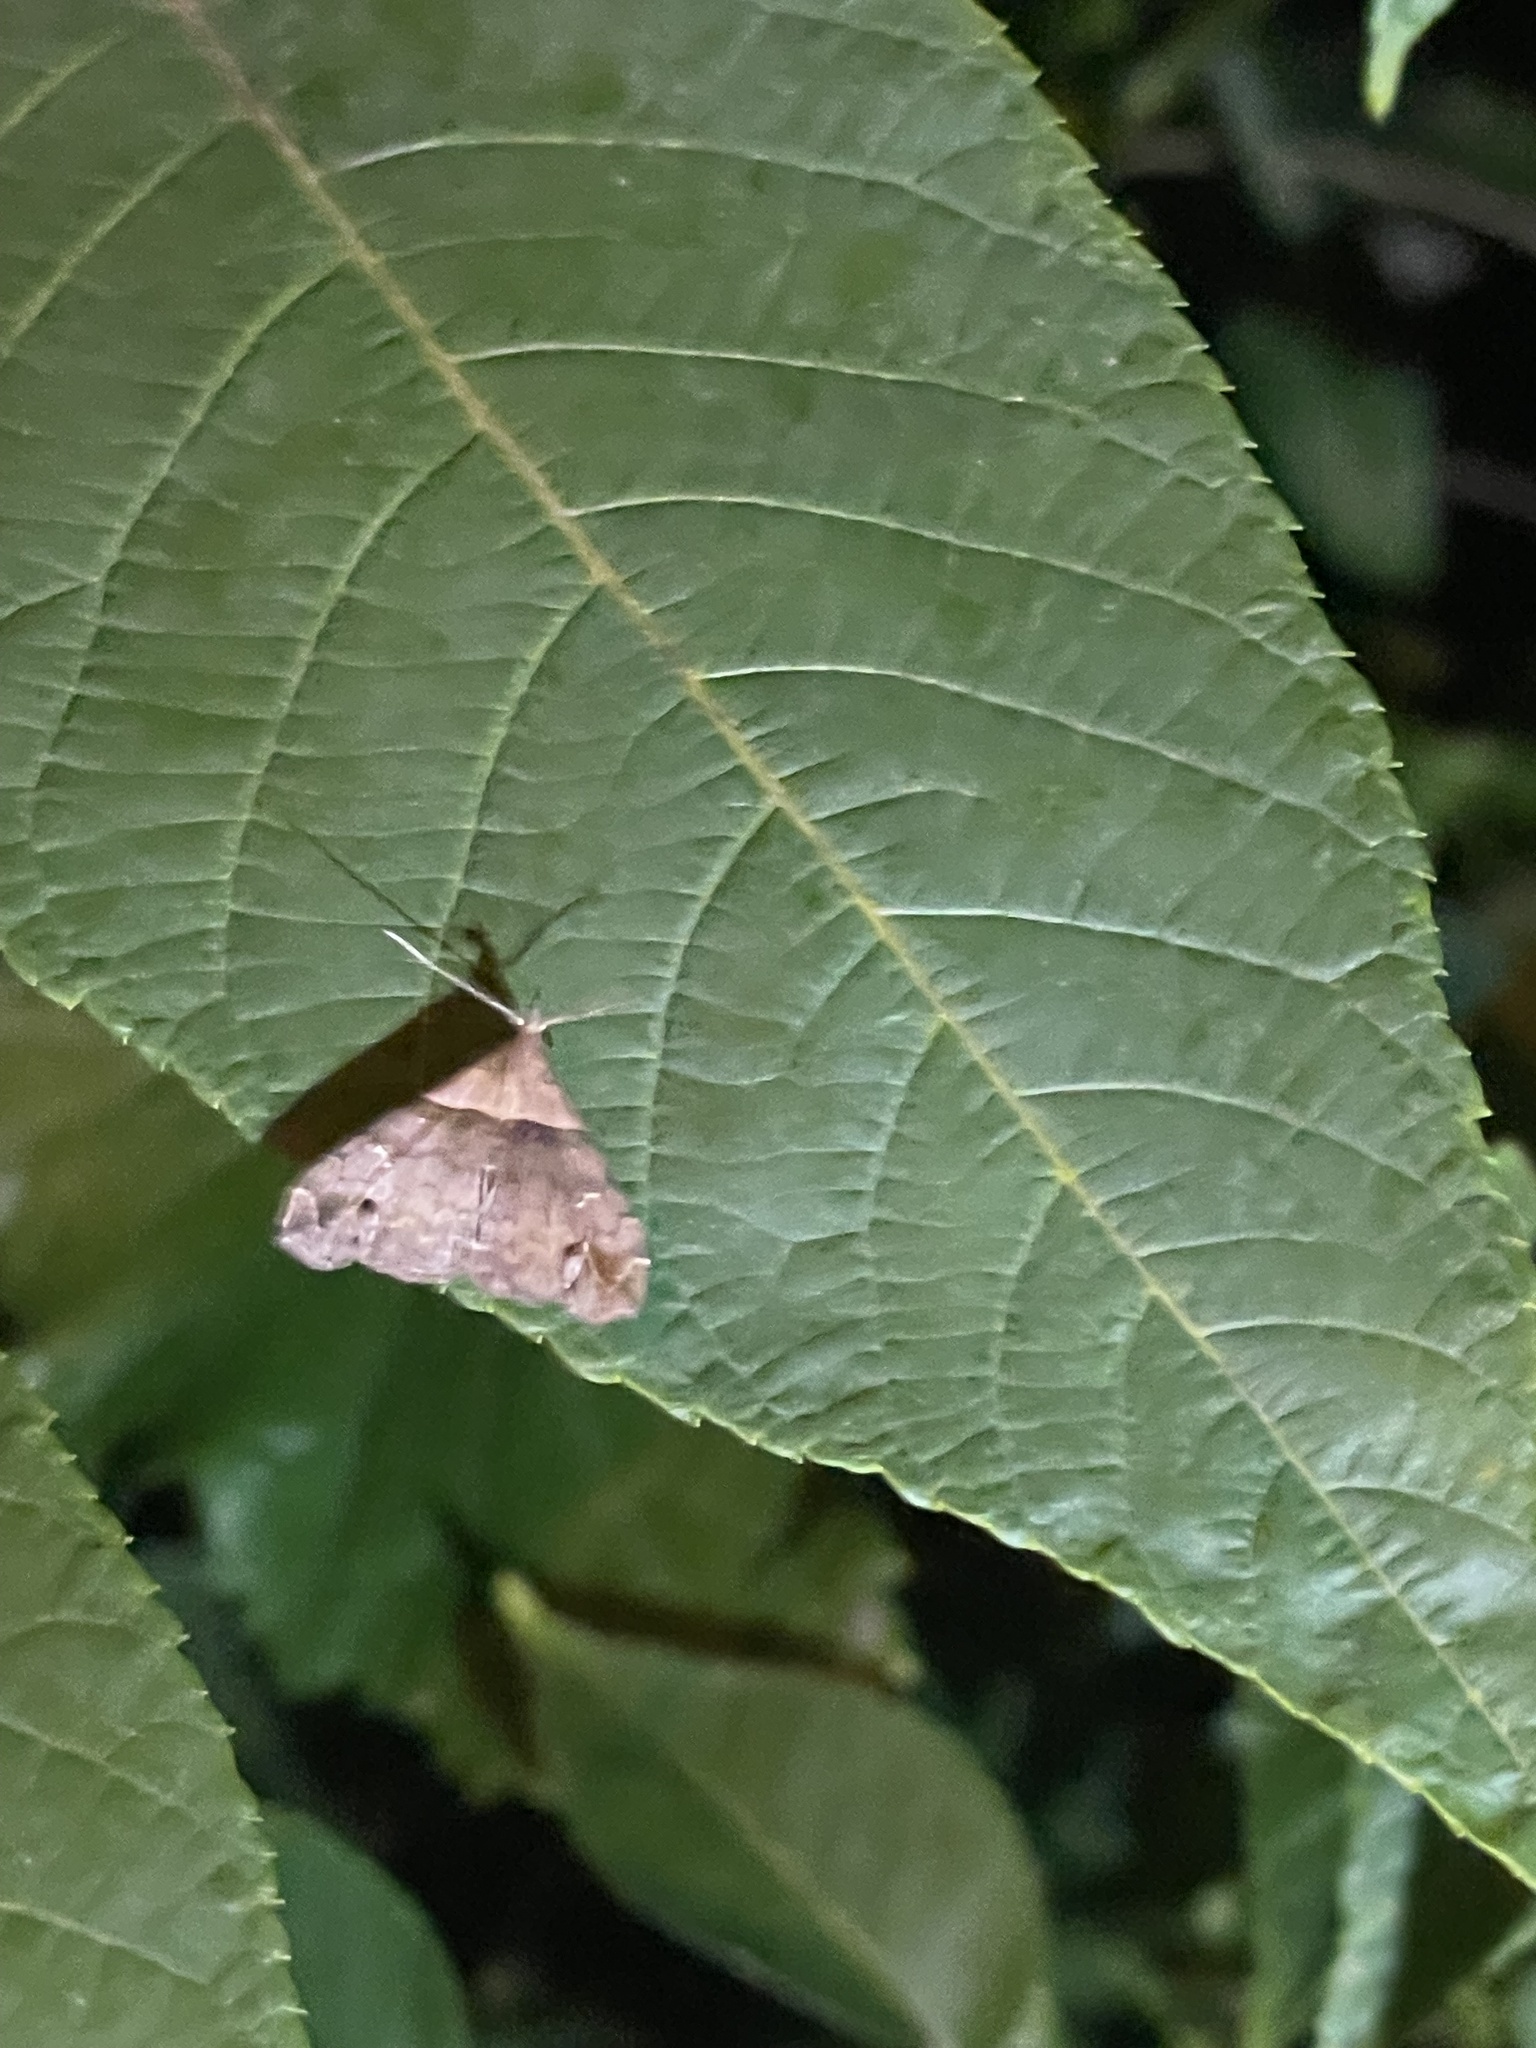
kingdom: Animalia
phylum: Arthropoda
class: Insecta
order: Lepidoptera
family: Erebidae
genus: Lascoria
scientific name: Lascoria ambigualis
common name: Ambiguous moth
